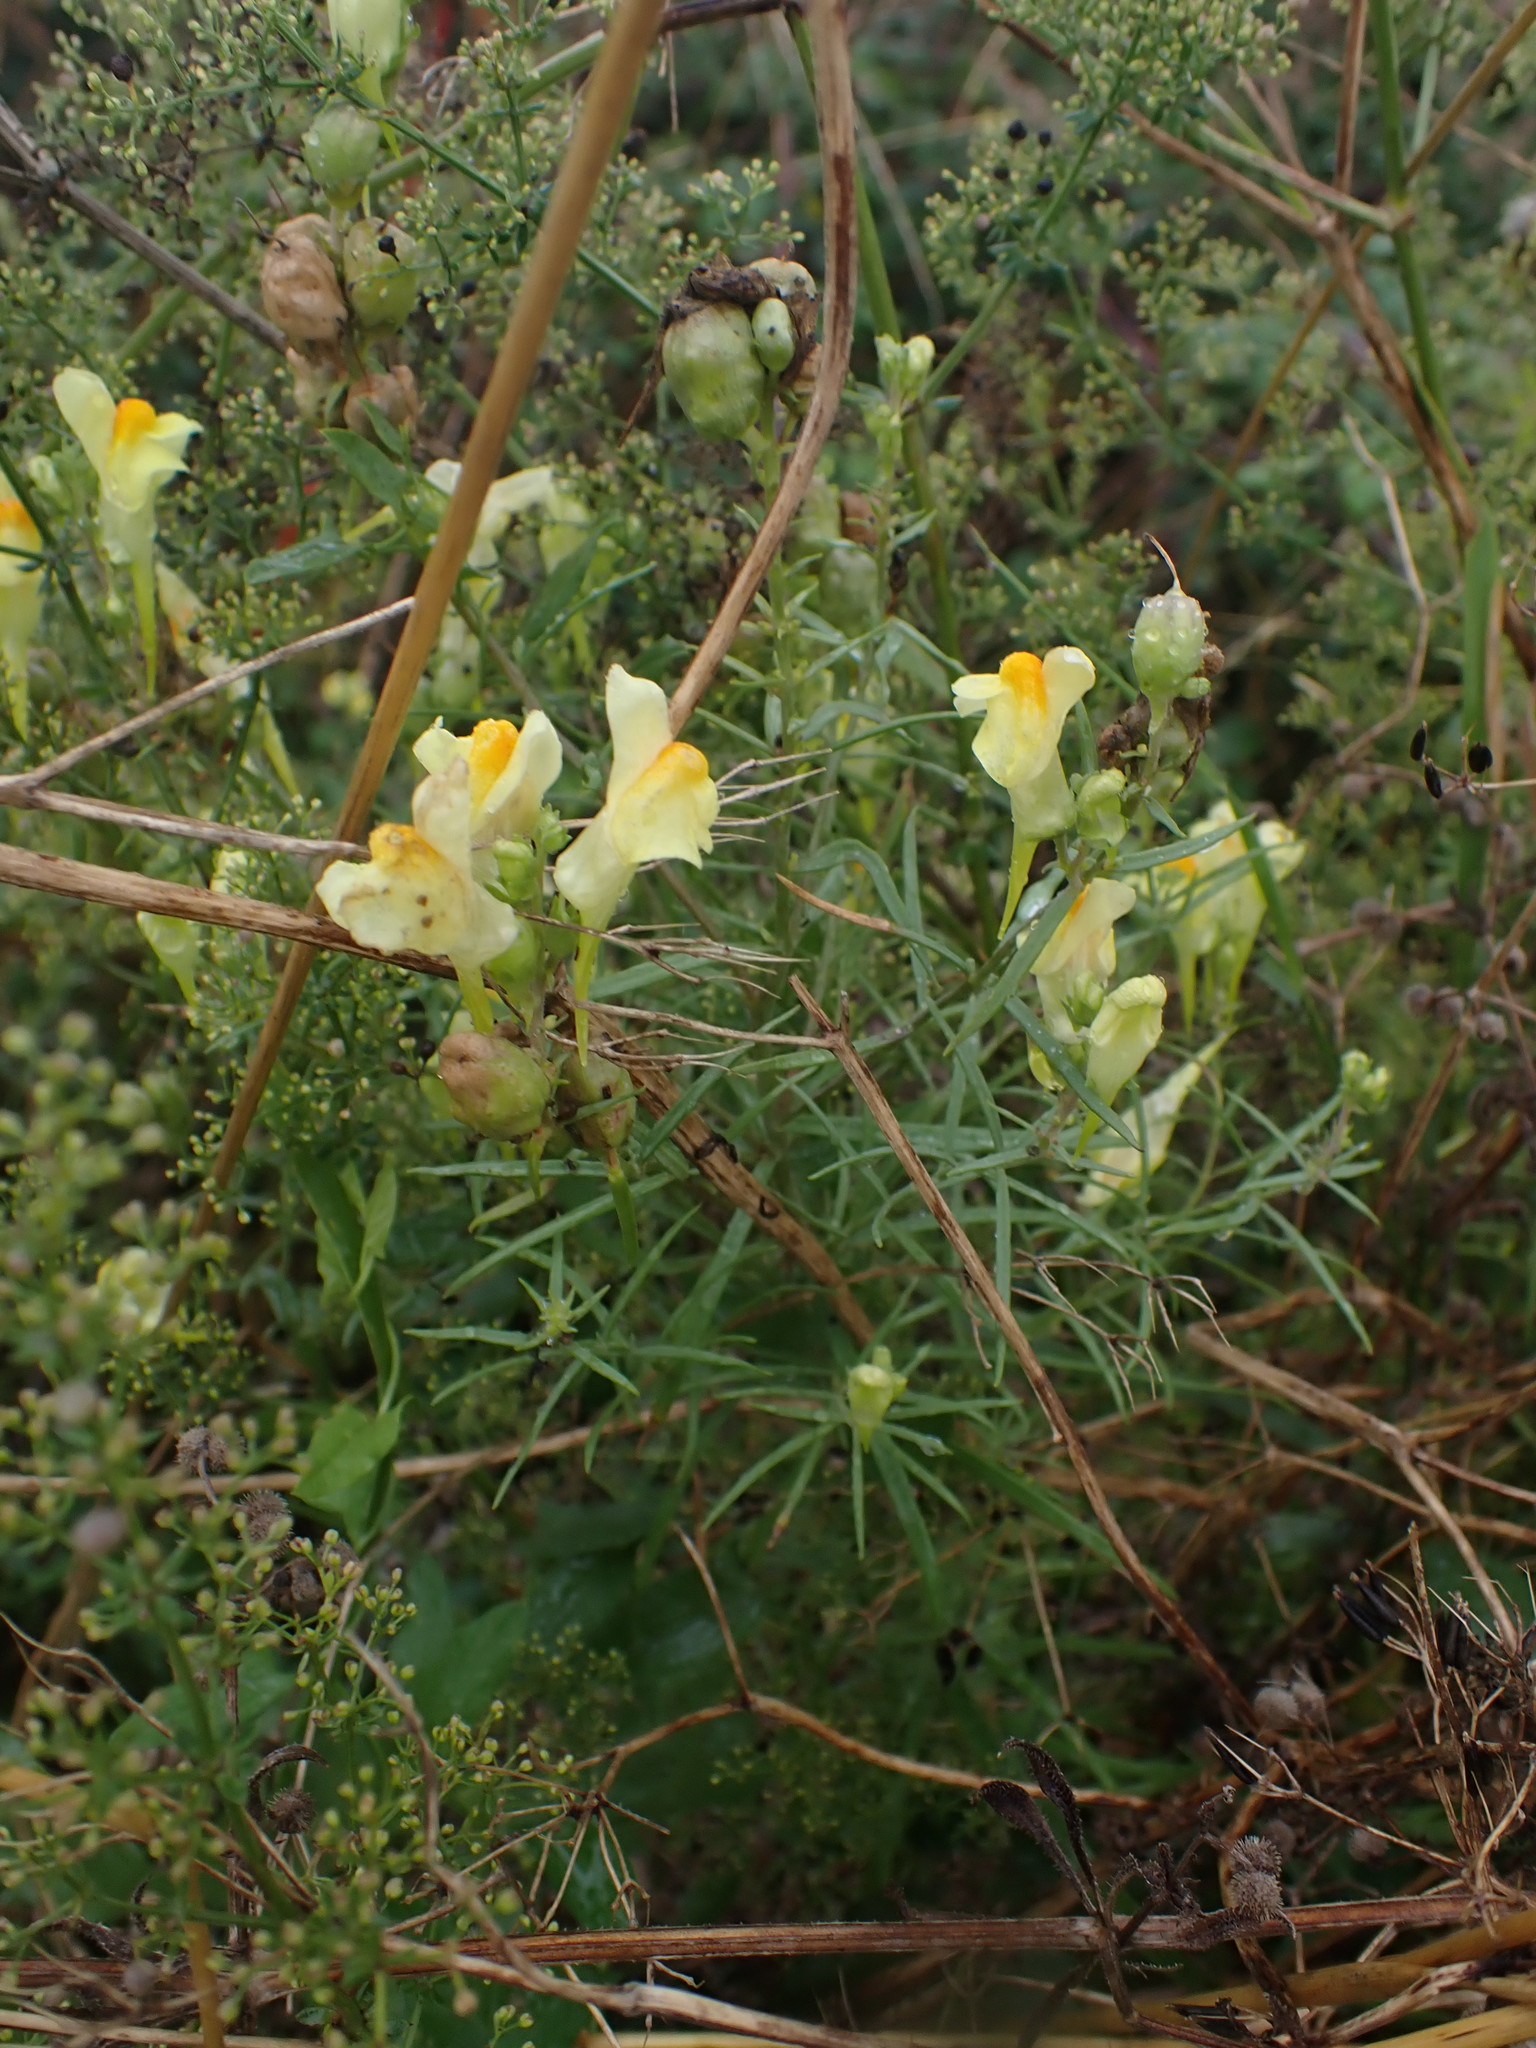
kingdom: Plantae
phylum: Tracheophyta
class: Magnoliopsida
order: Lamiales
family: Plantaginaceae
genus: Linaria
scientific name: Linaria vulgaris
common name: Butter and eggs
